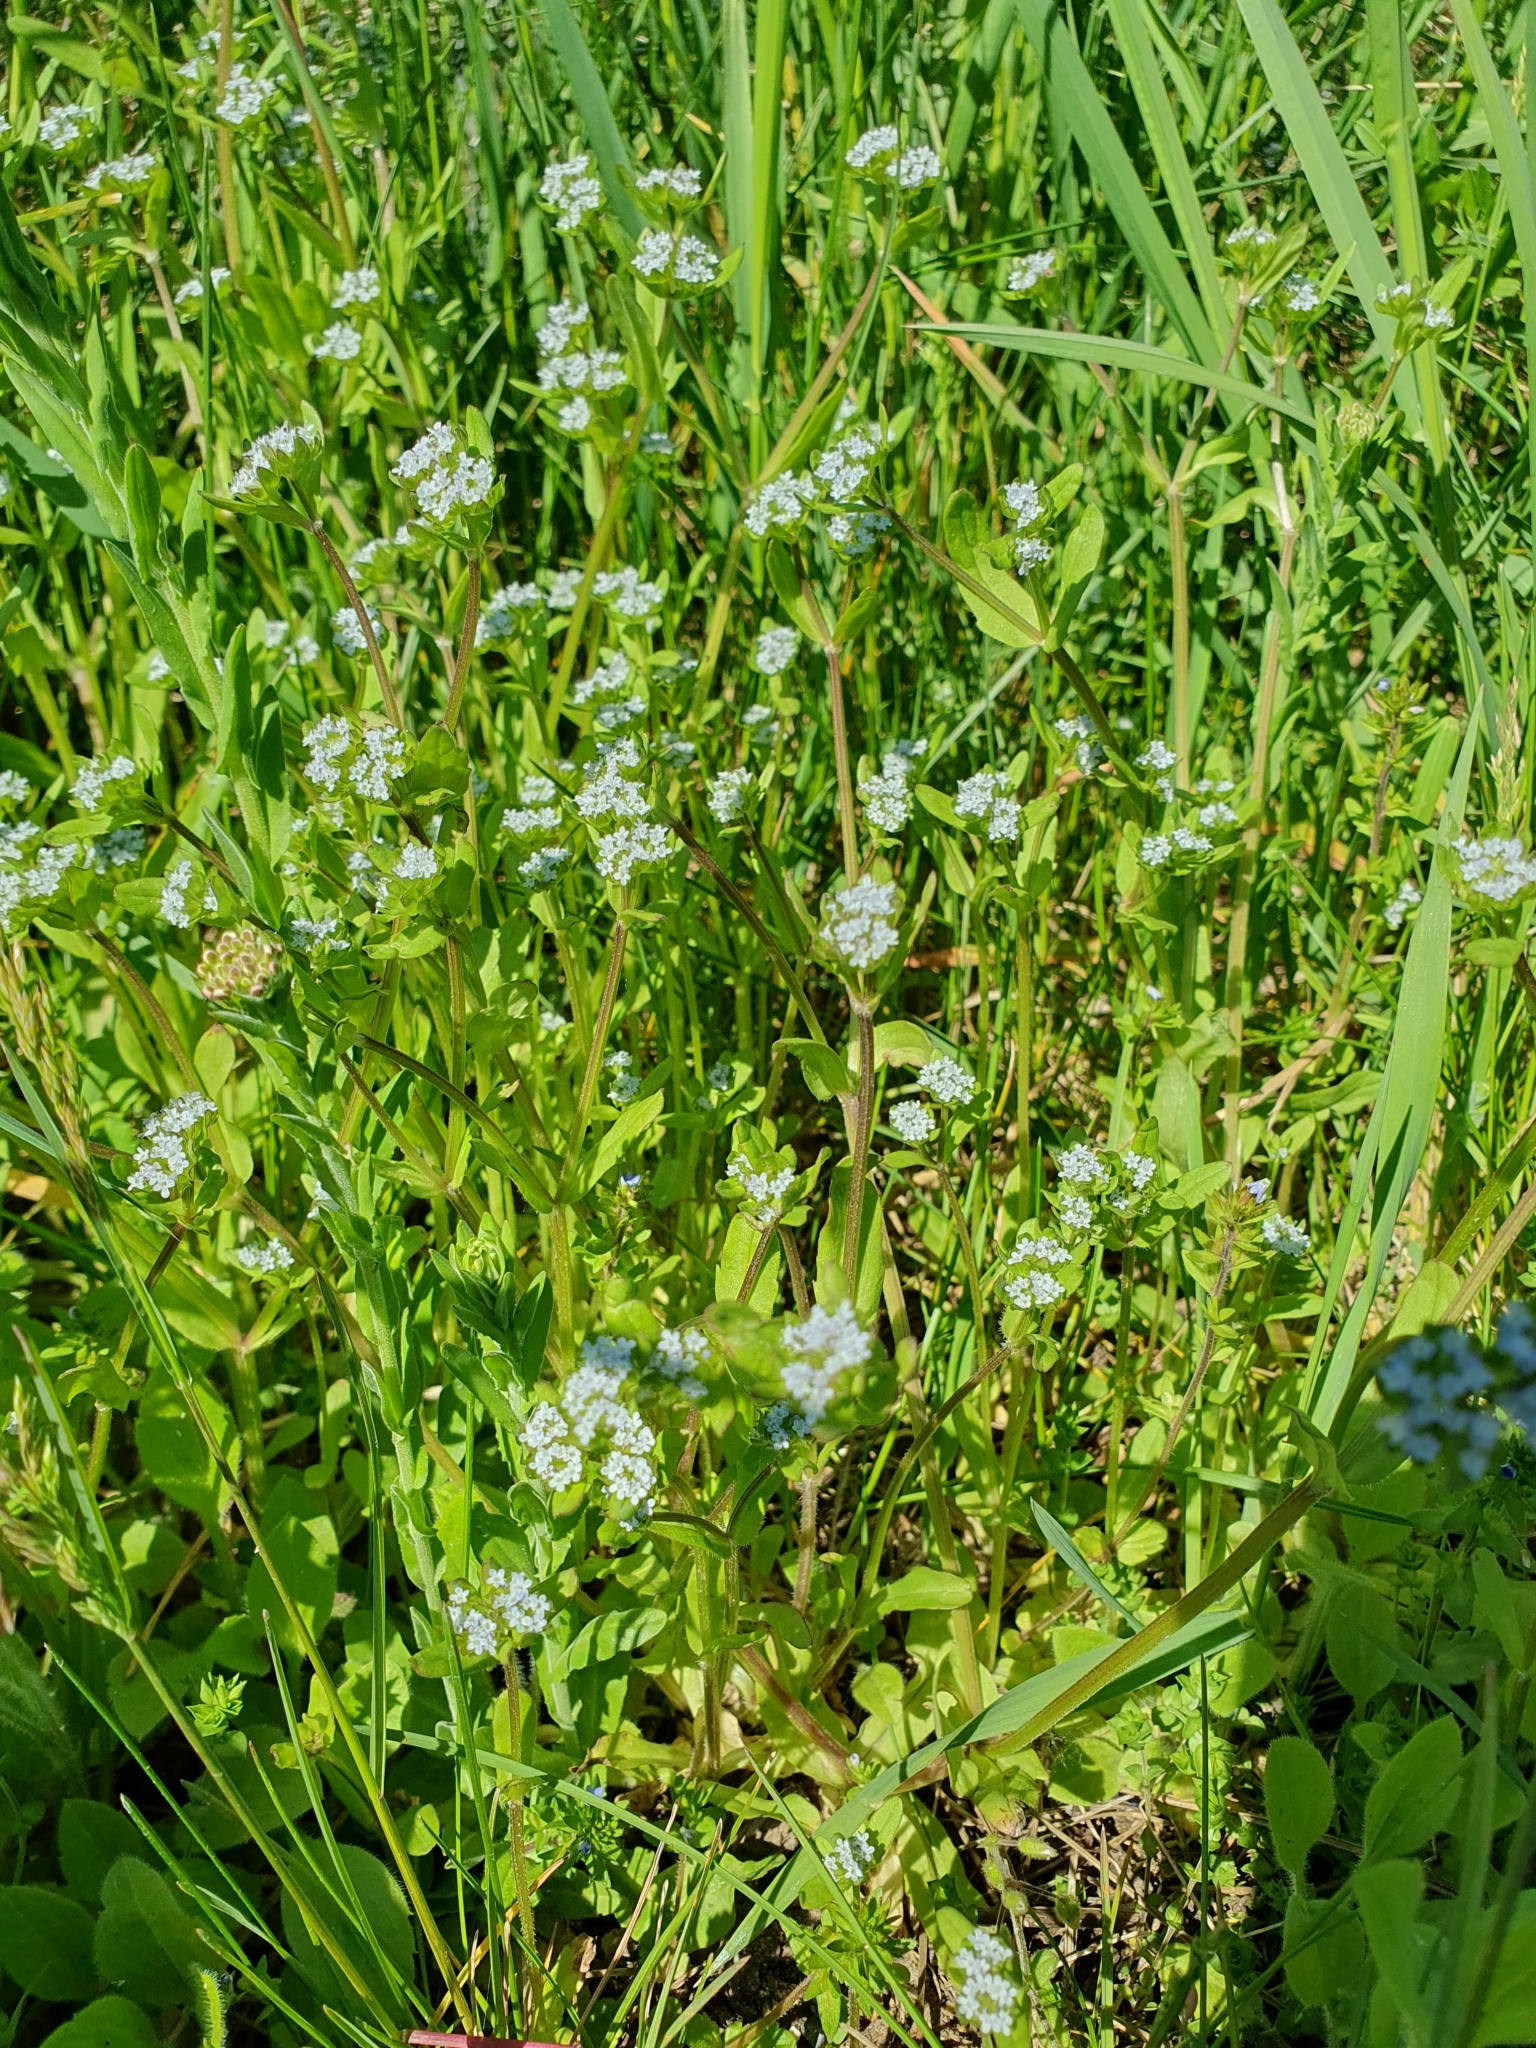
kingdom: Plantae
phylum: Tracheophyta
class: Magnoliopsida
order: Dipsacales
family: Caprifoliaceae
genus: Valerianella
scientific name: Valerianella locusta
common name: Common cornsalad
